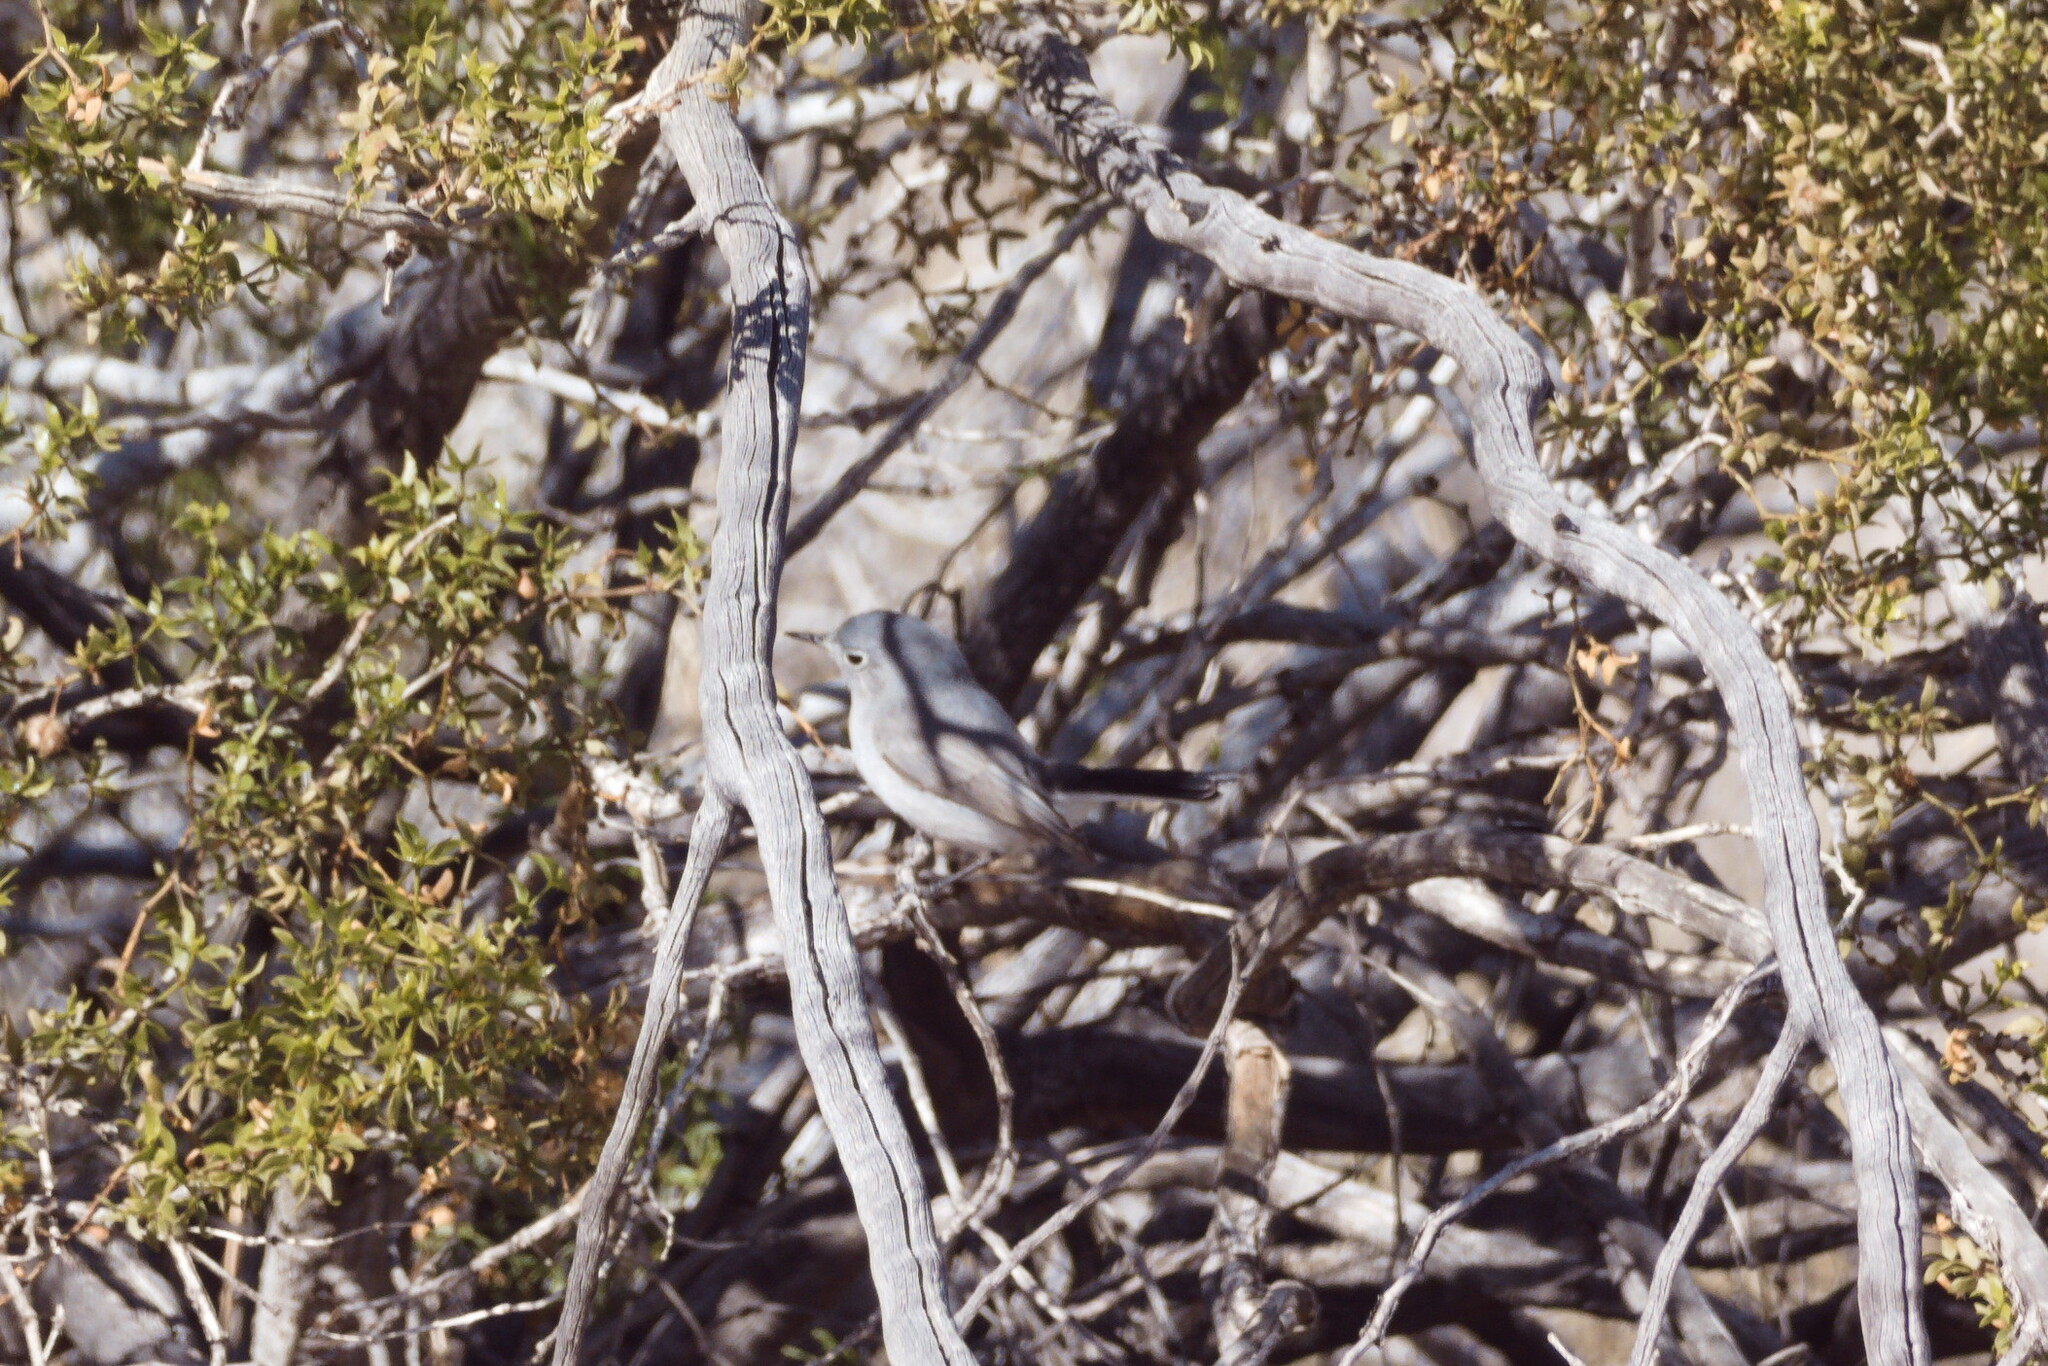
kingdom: Animalia
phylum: Chordata
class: Aves
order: Passeriformes
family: Polioptilidae
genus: Polioptila
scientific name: Polioptila melanura
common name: Black-tailed gnatcatcher
